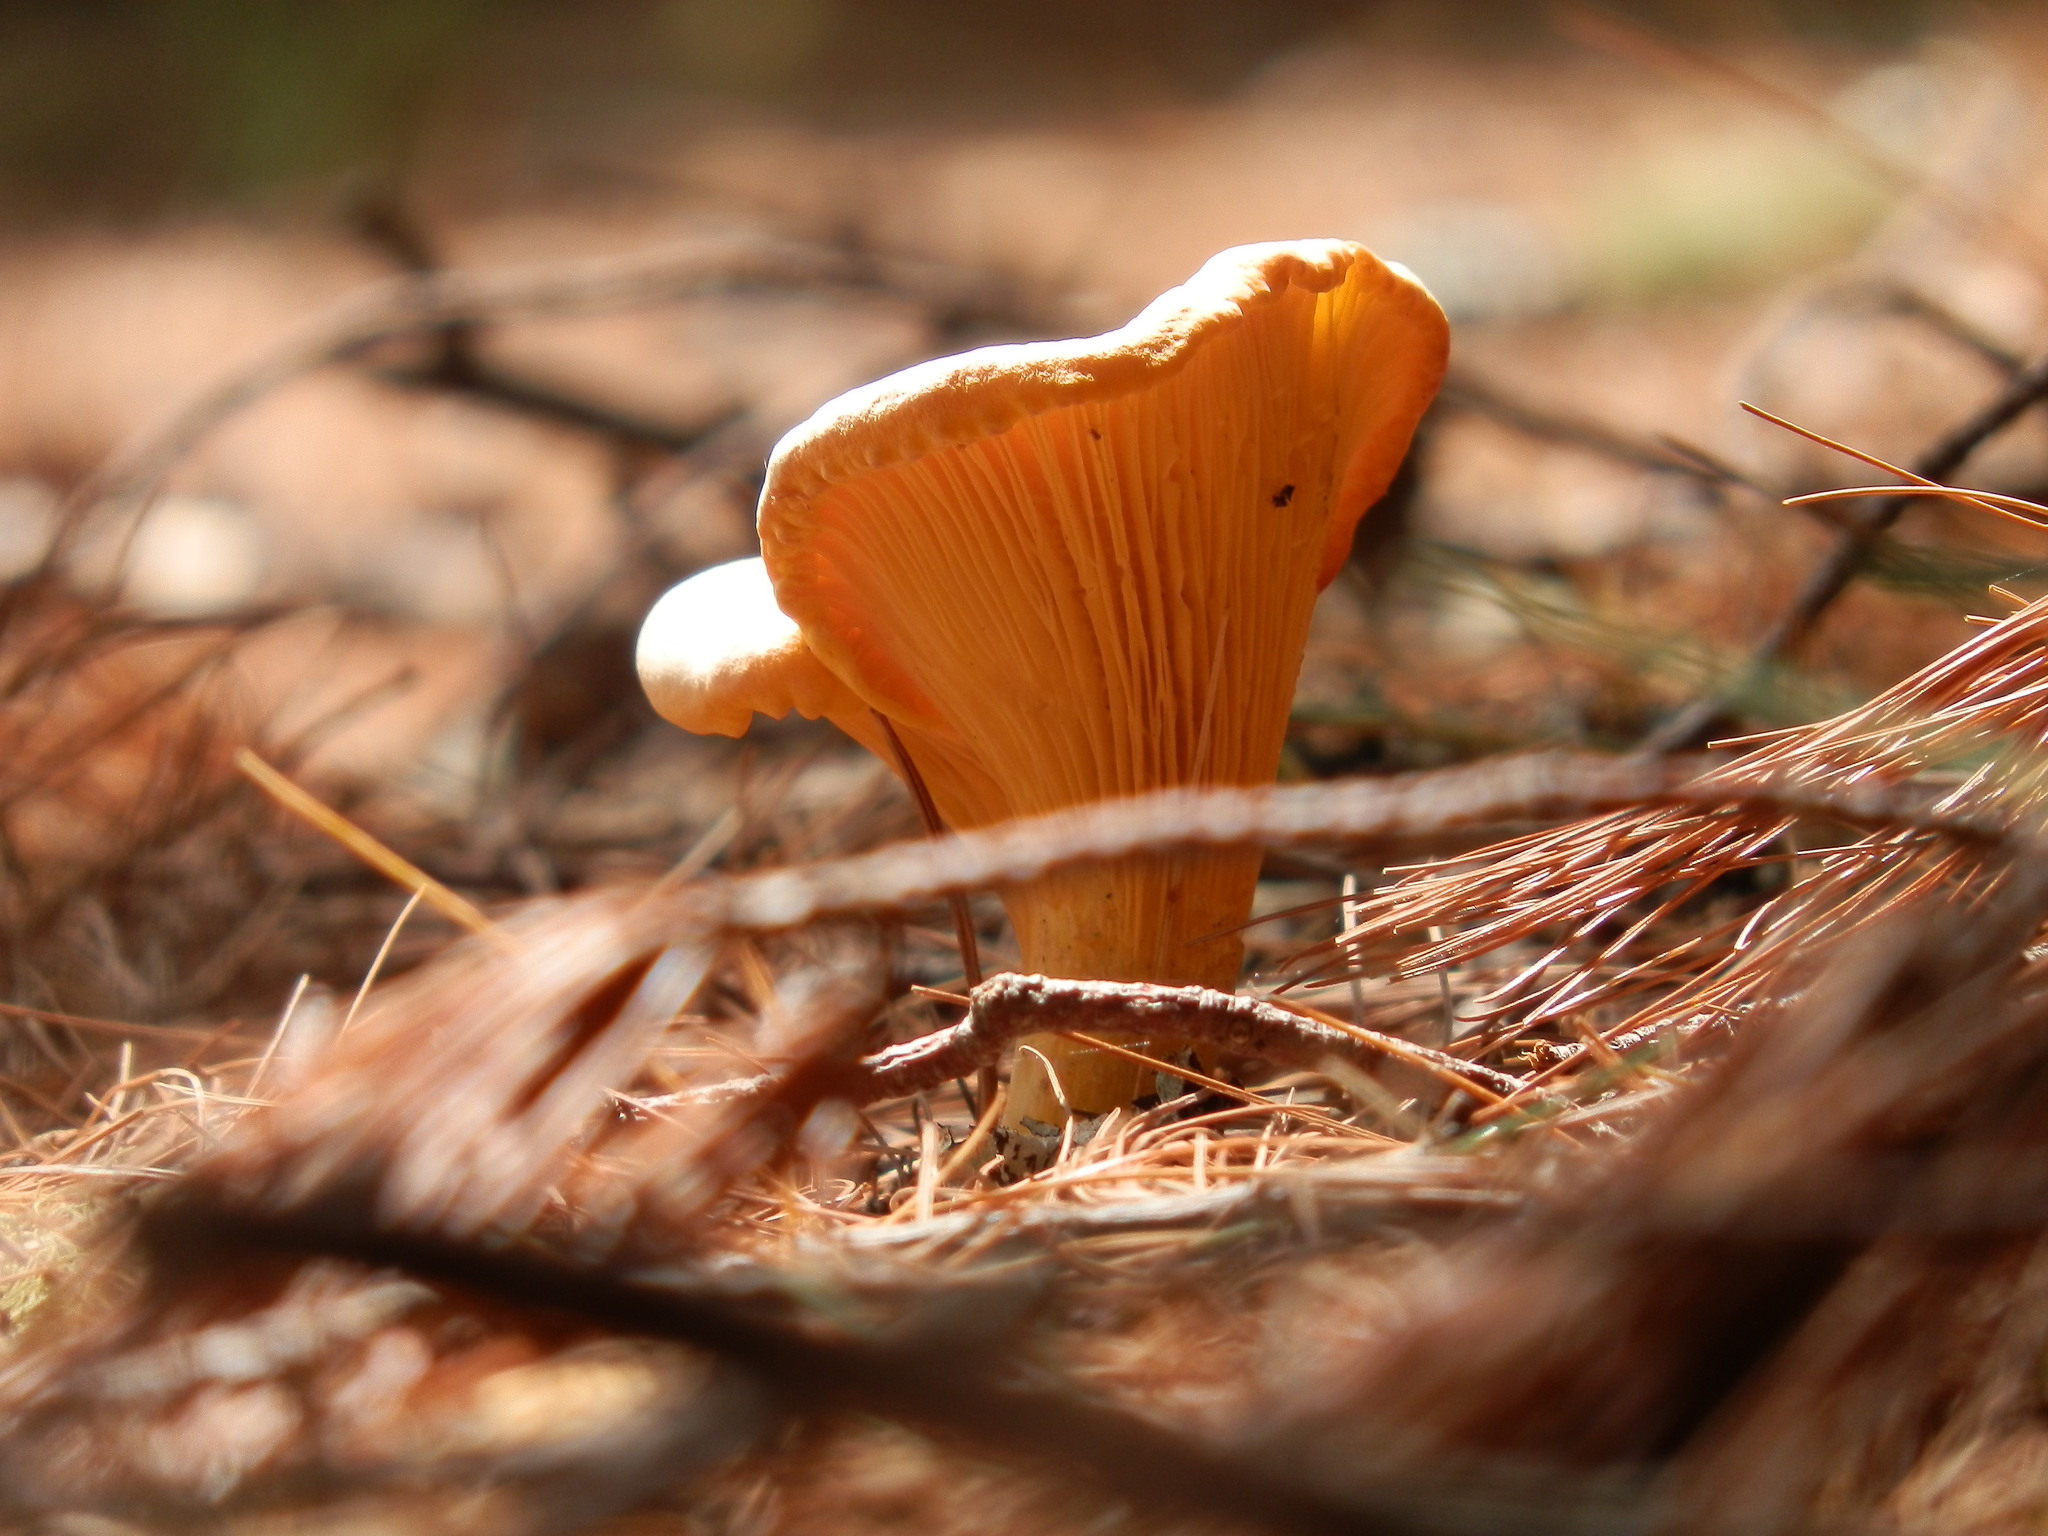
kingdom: Fungi
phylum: Basidiomycota
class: Agaricomycetes
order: Cantharellales
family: Hydnaceae
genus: Cantharellus
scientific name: Cantharellus enelensis
